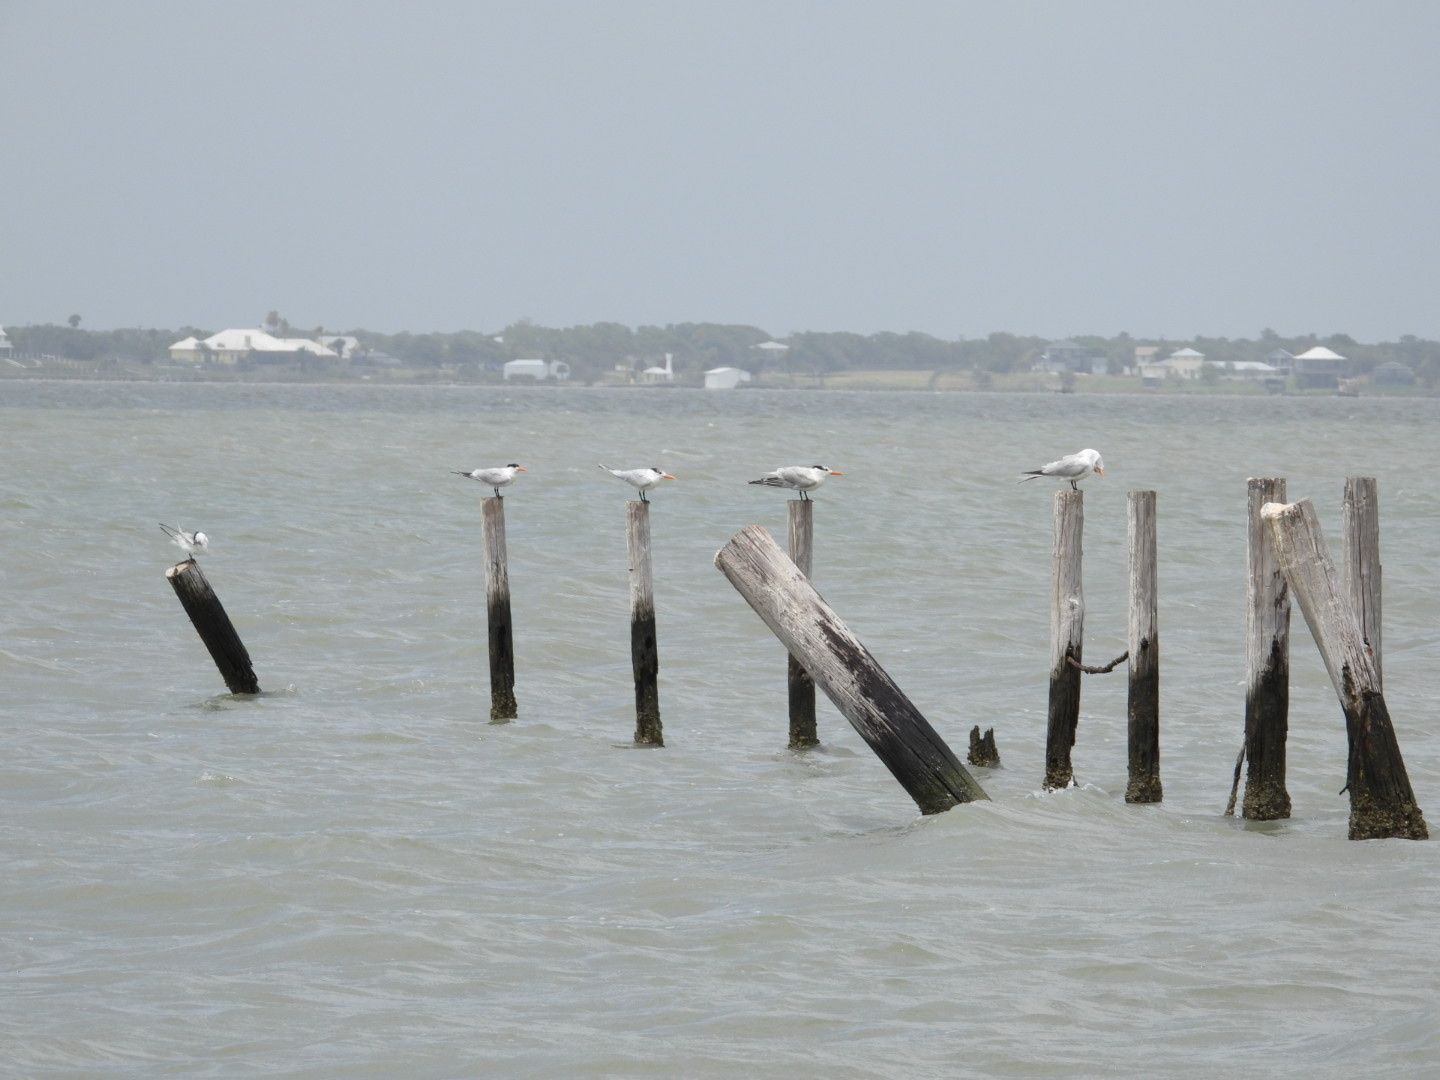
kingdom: Animalia
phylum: Chordata
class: Aves
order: Charadriiformes
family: Laridae
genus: Thalasseus
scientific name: Thalasseus maximus
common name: Royal tern
